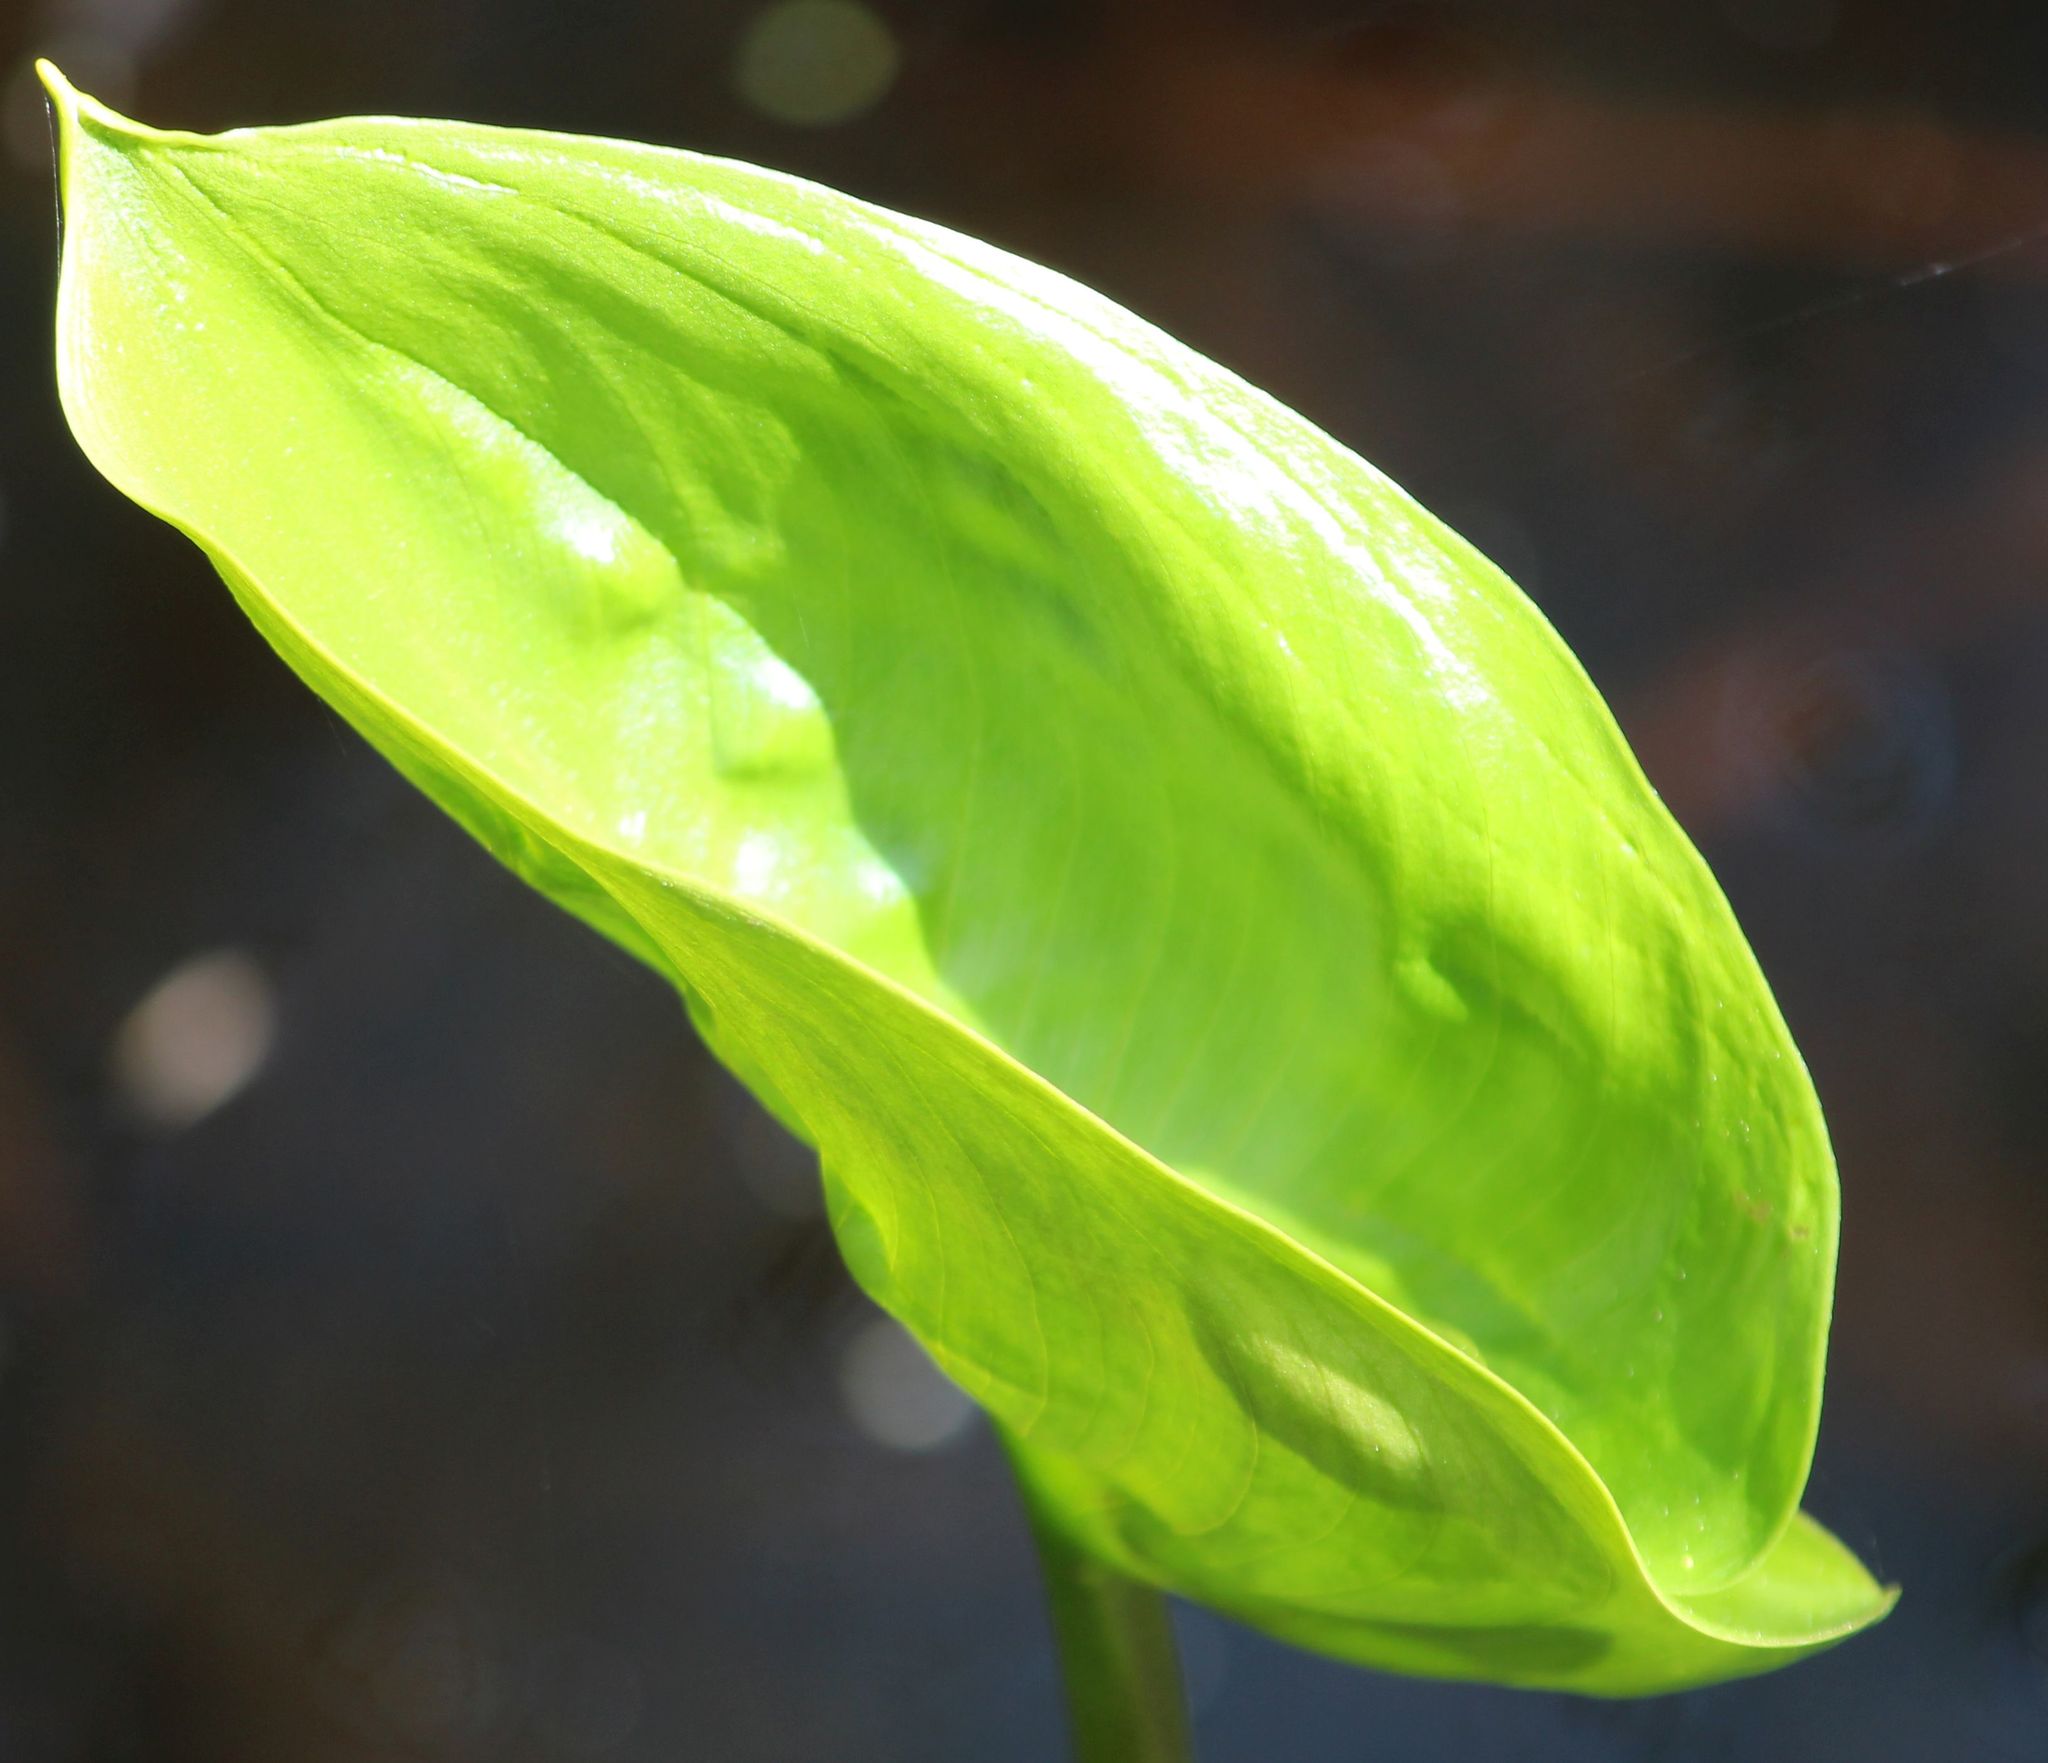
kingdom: Plantae
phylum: Tracheophyta
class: Liliopsida
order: Alismatales
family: Araceae
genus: Calla
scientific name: Calla palustris
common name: Bog arum
